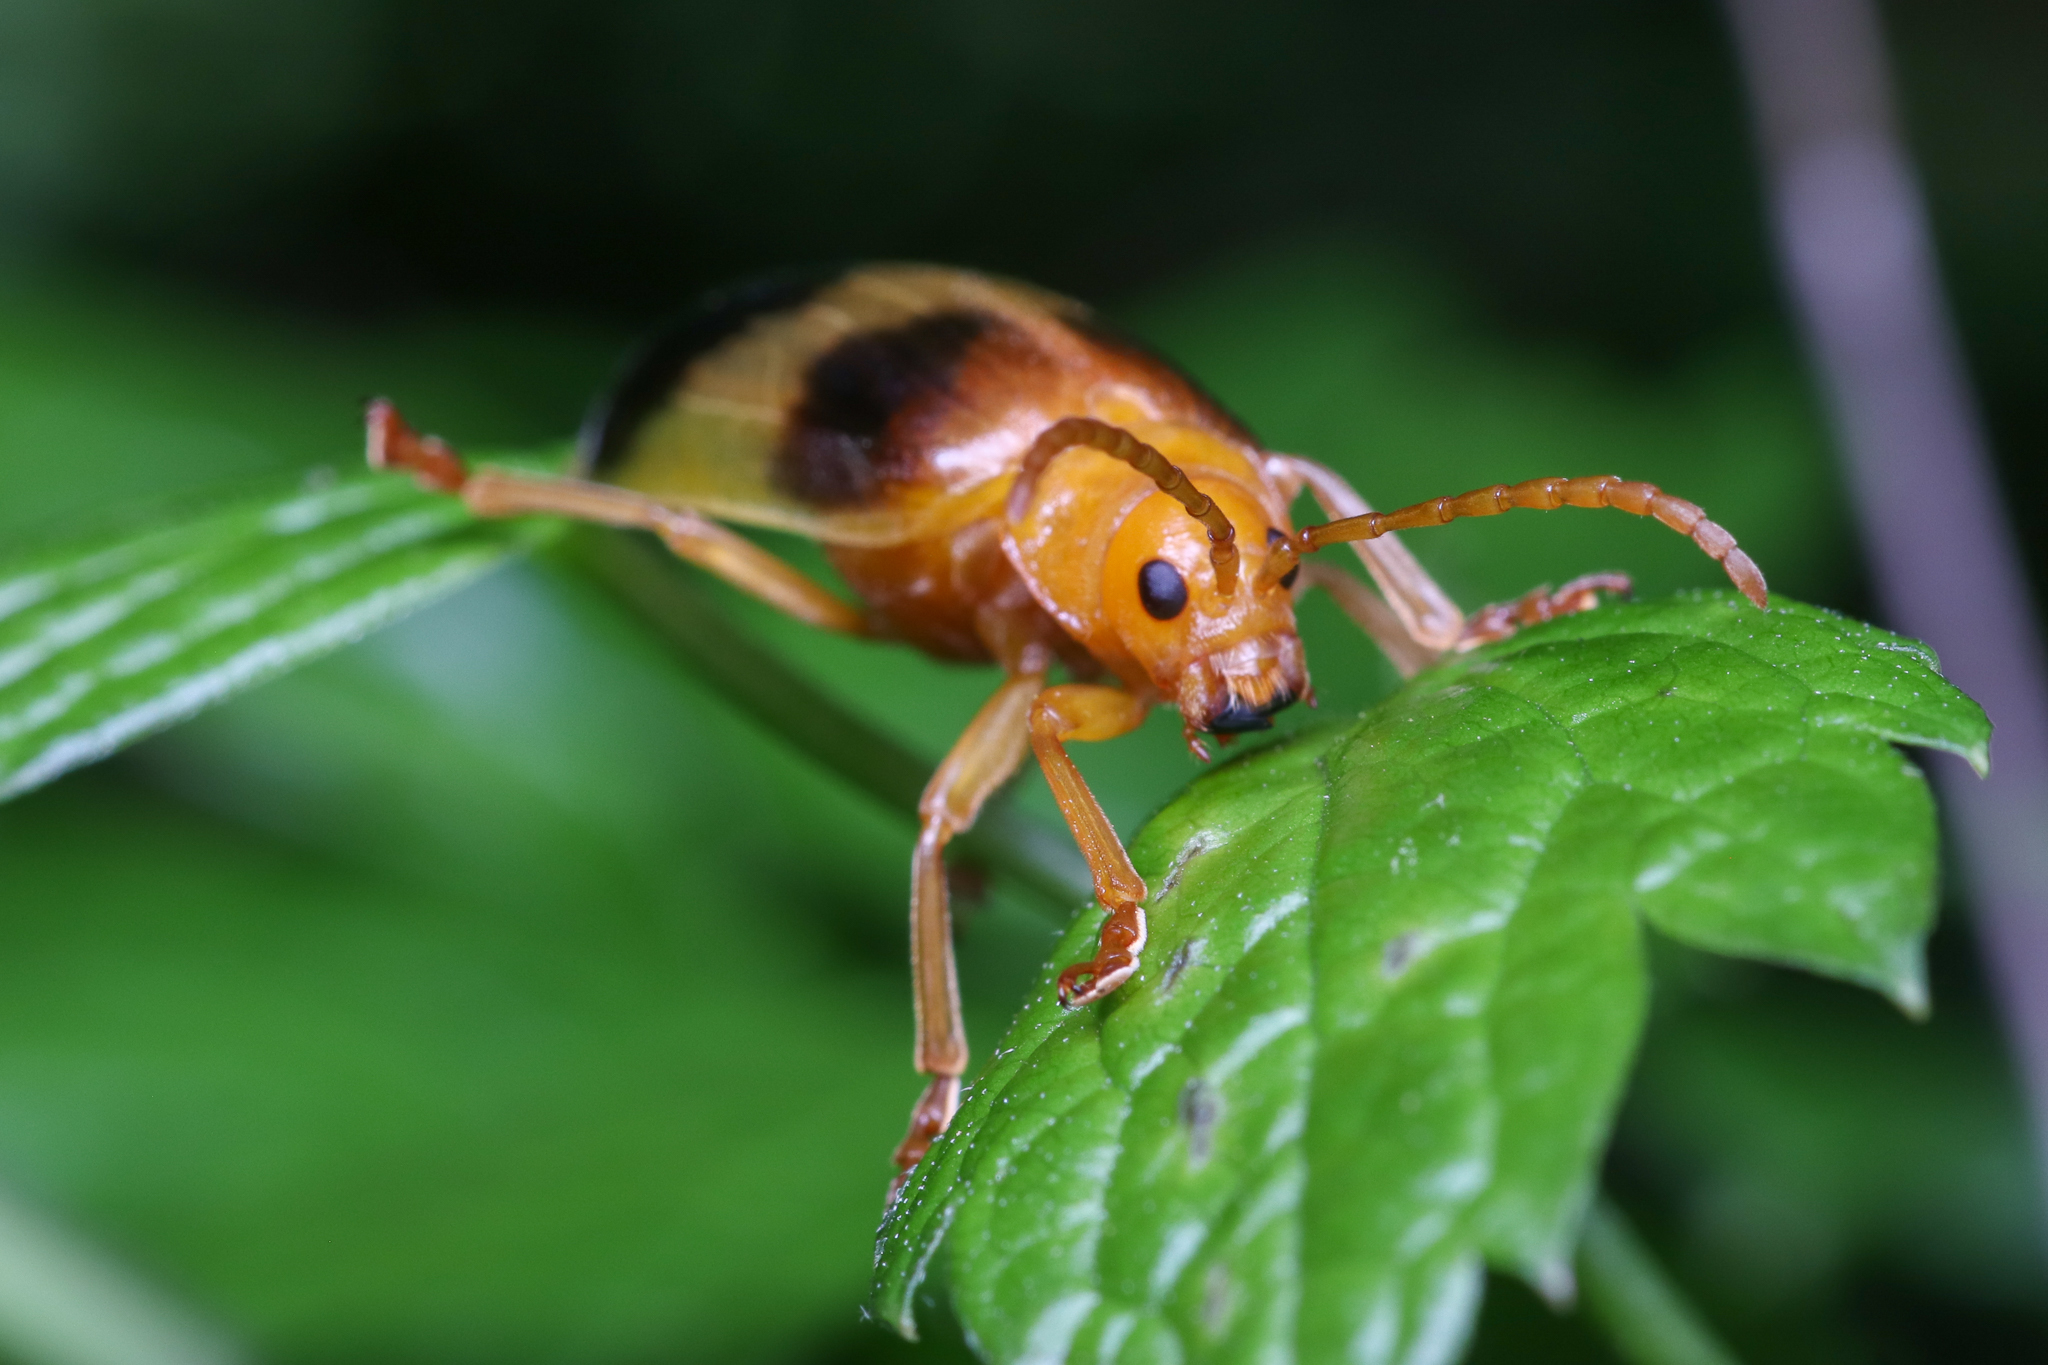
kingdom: Animalia
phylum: Arthropoda
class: Insecta
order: Coleoptera
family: Chrysomelidae
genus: Monocesta
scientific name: Monocesta coryli
